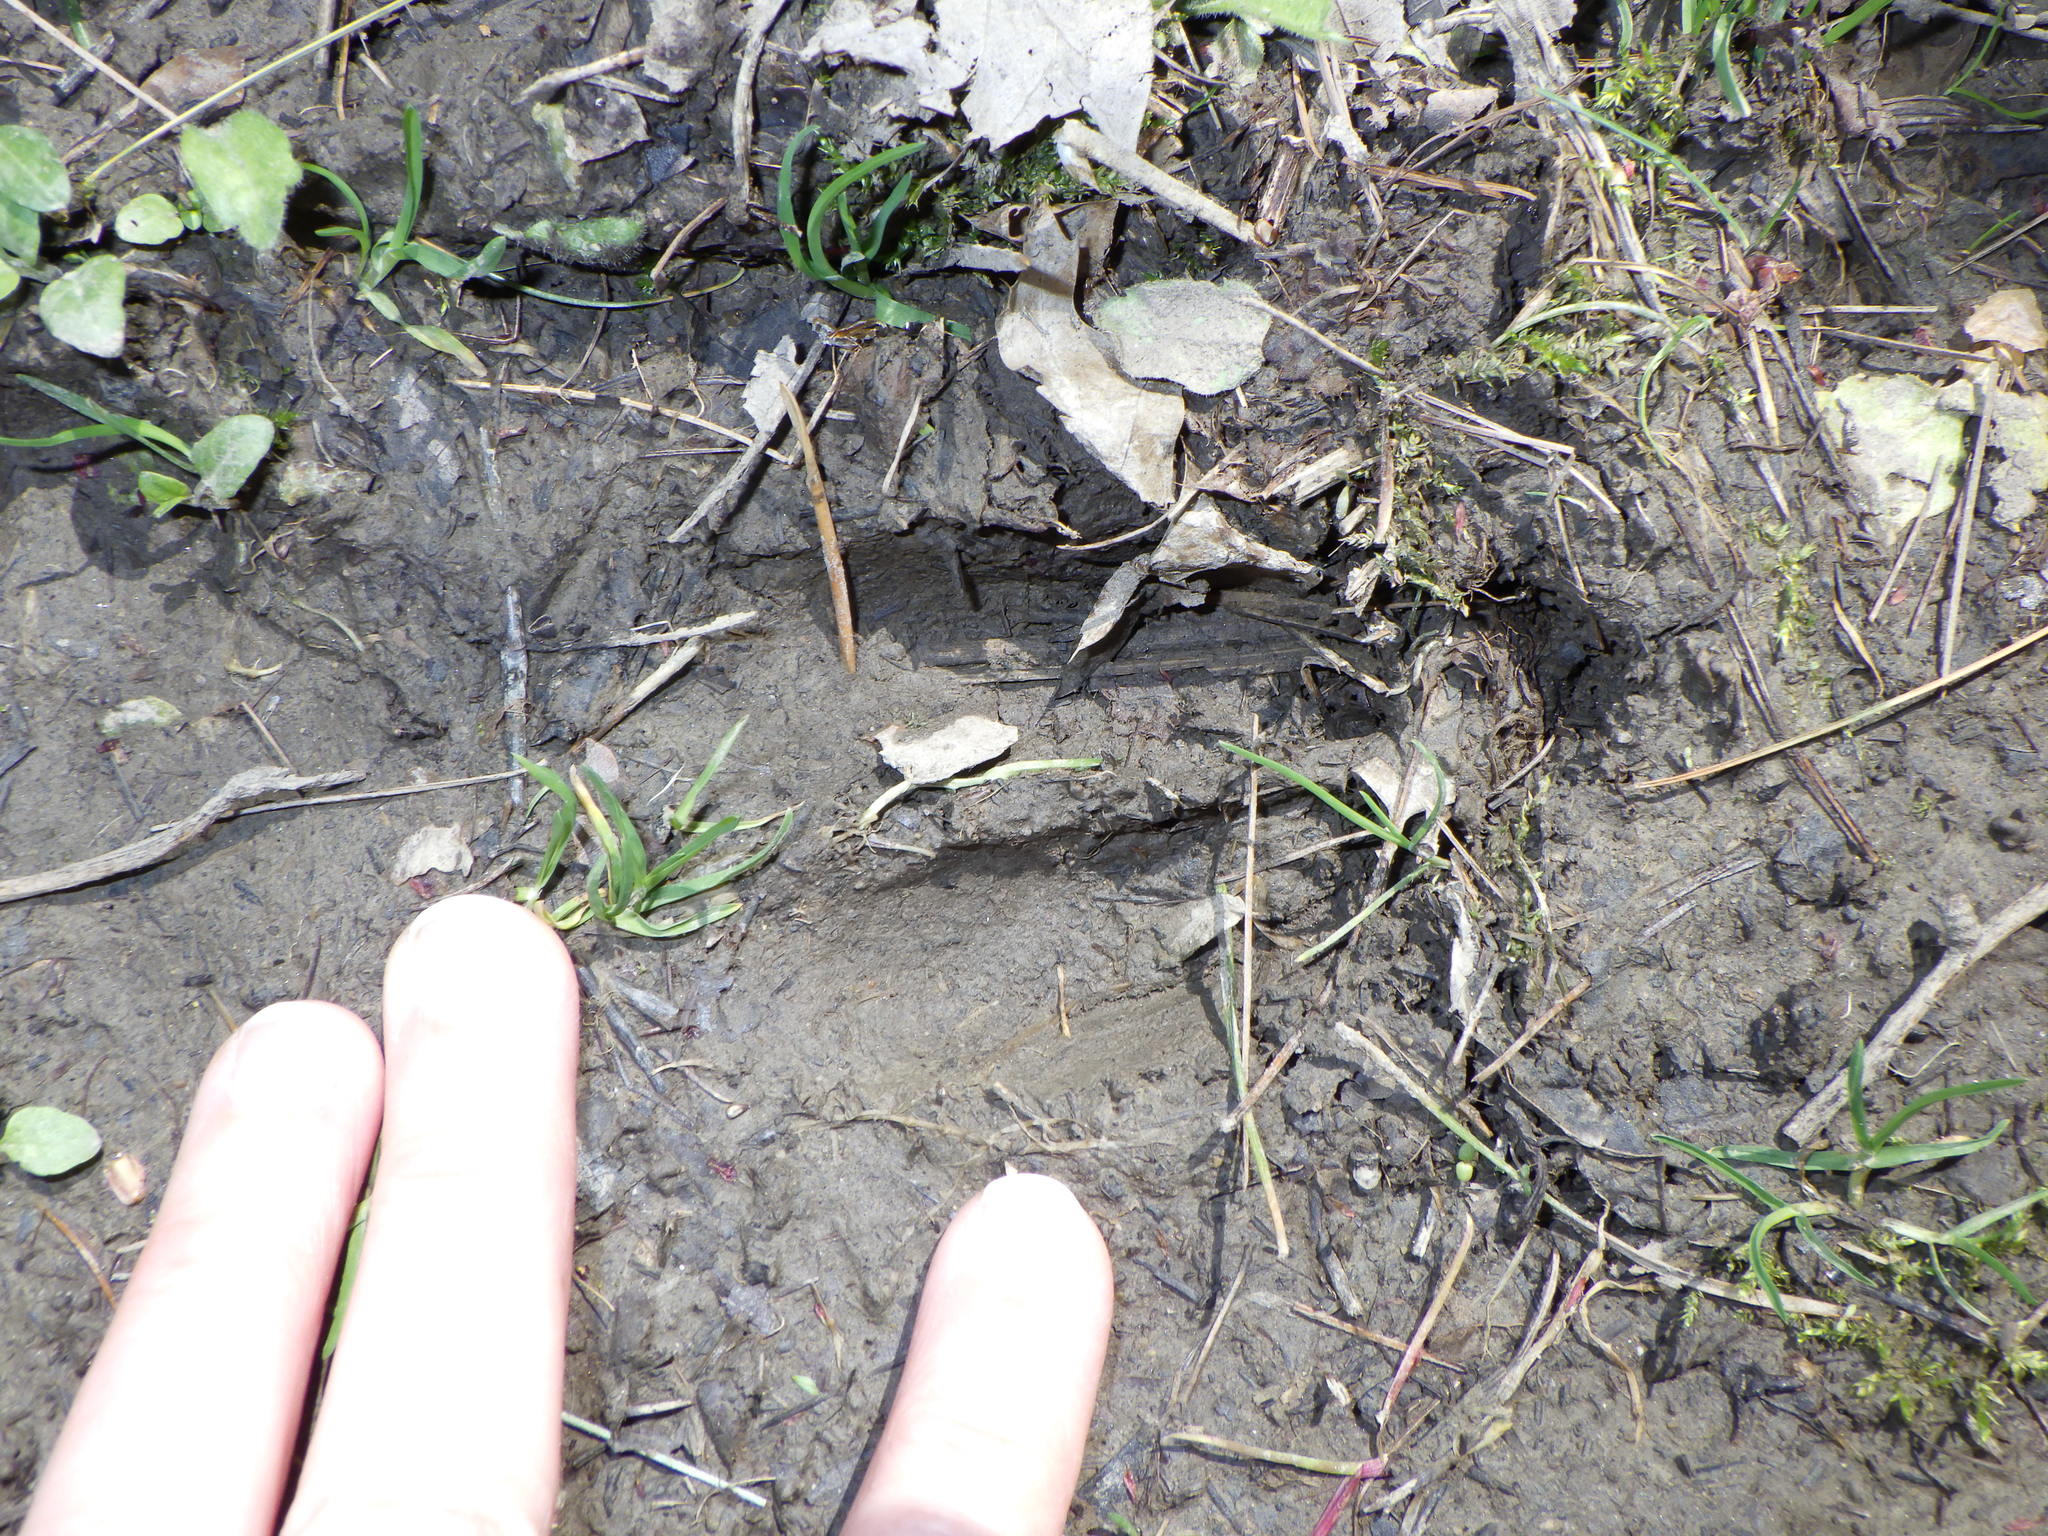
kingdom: Animalia
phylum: Chordata
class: Mammalia
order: Artiodactyla
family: Cervidae
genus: Odocoileus
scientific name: Odocoileus virginianus
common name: White-tailed deer
